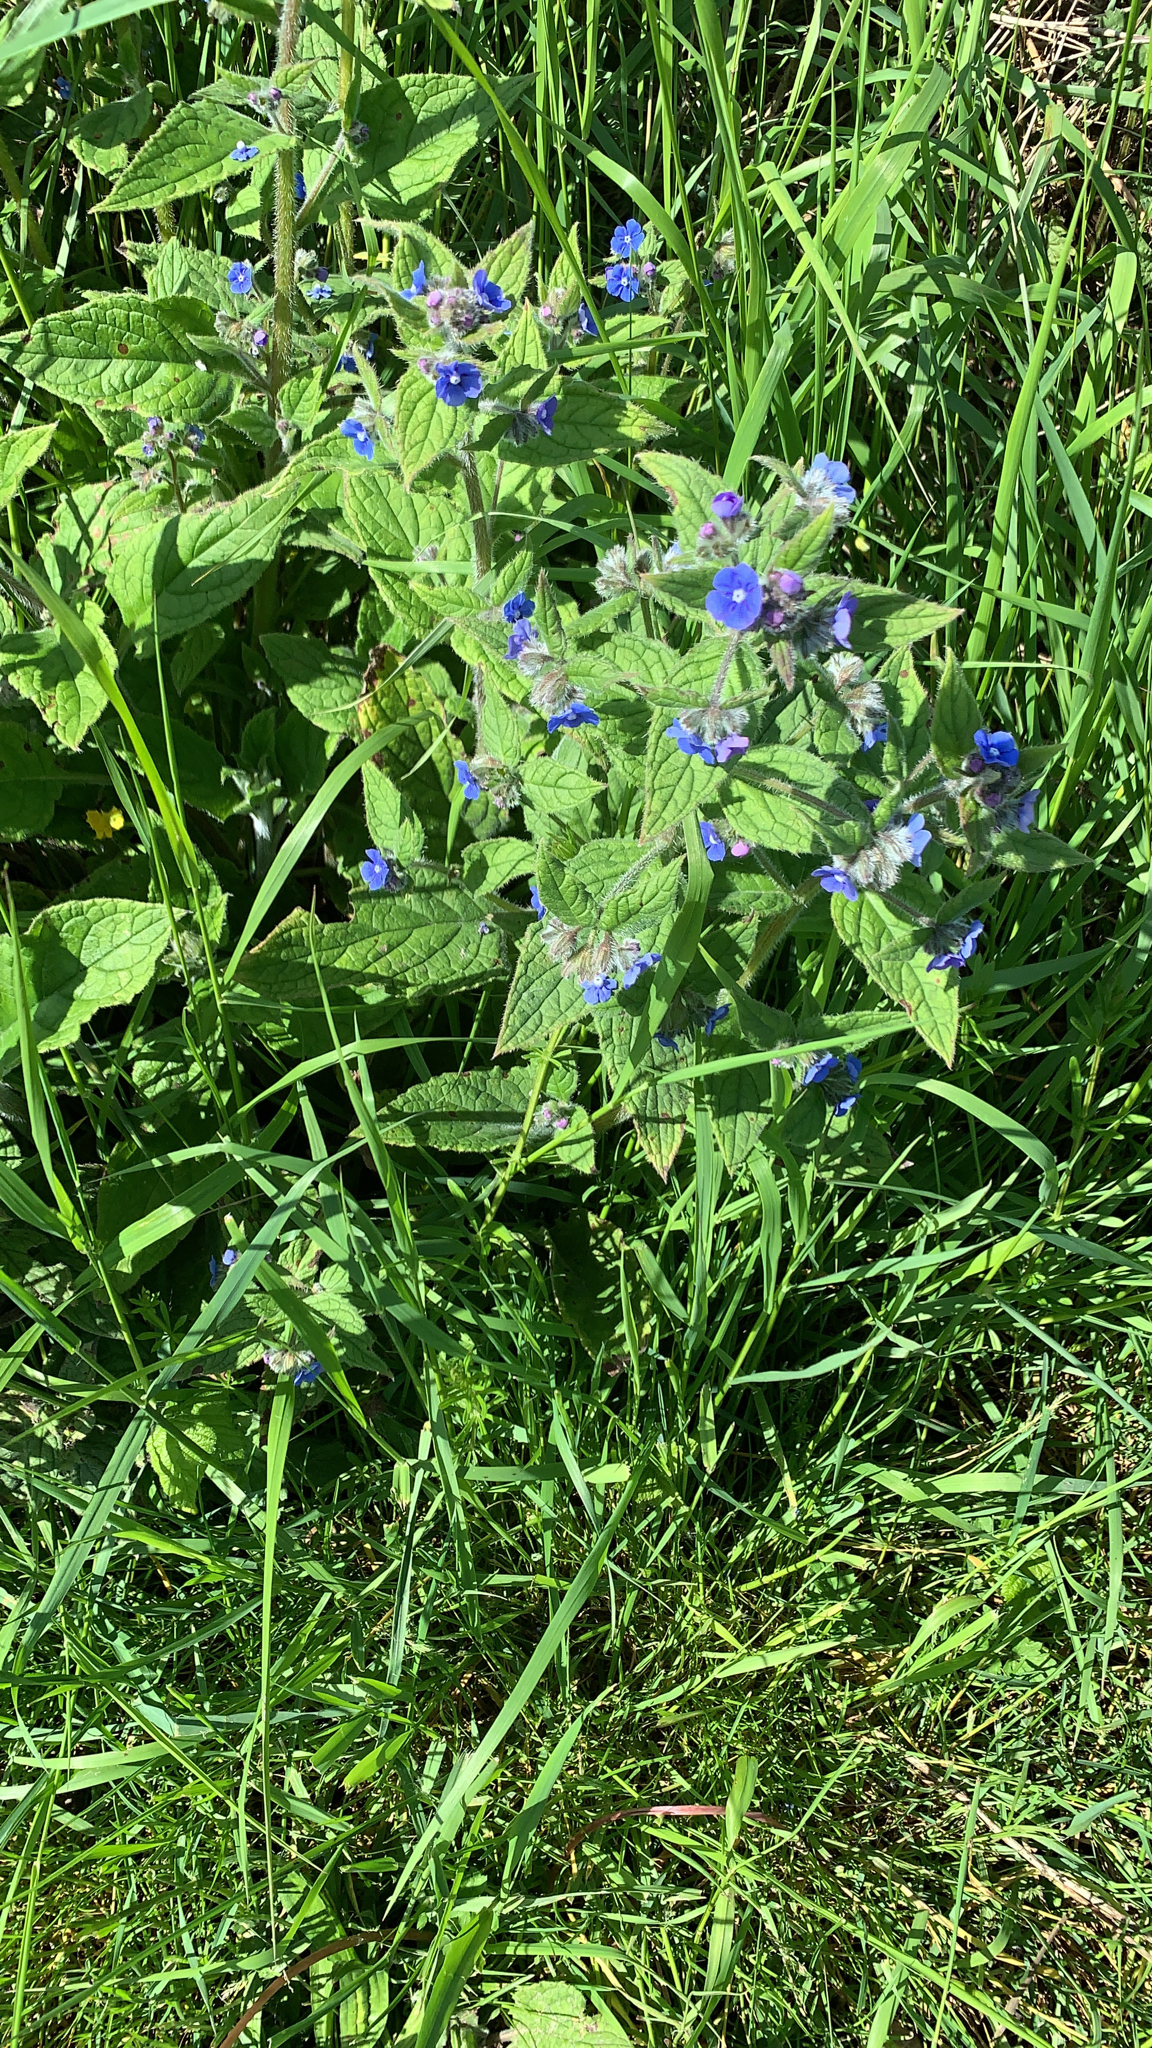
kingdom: Plantae
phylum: Tracheophyta
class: Magnoliopsida
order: Boraginales
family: Boraginaceae
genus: Pentaglottis
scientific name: Pentaglottis sempervirens
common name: Green alkanet
